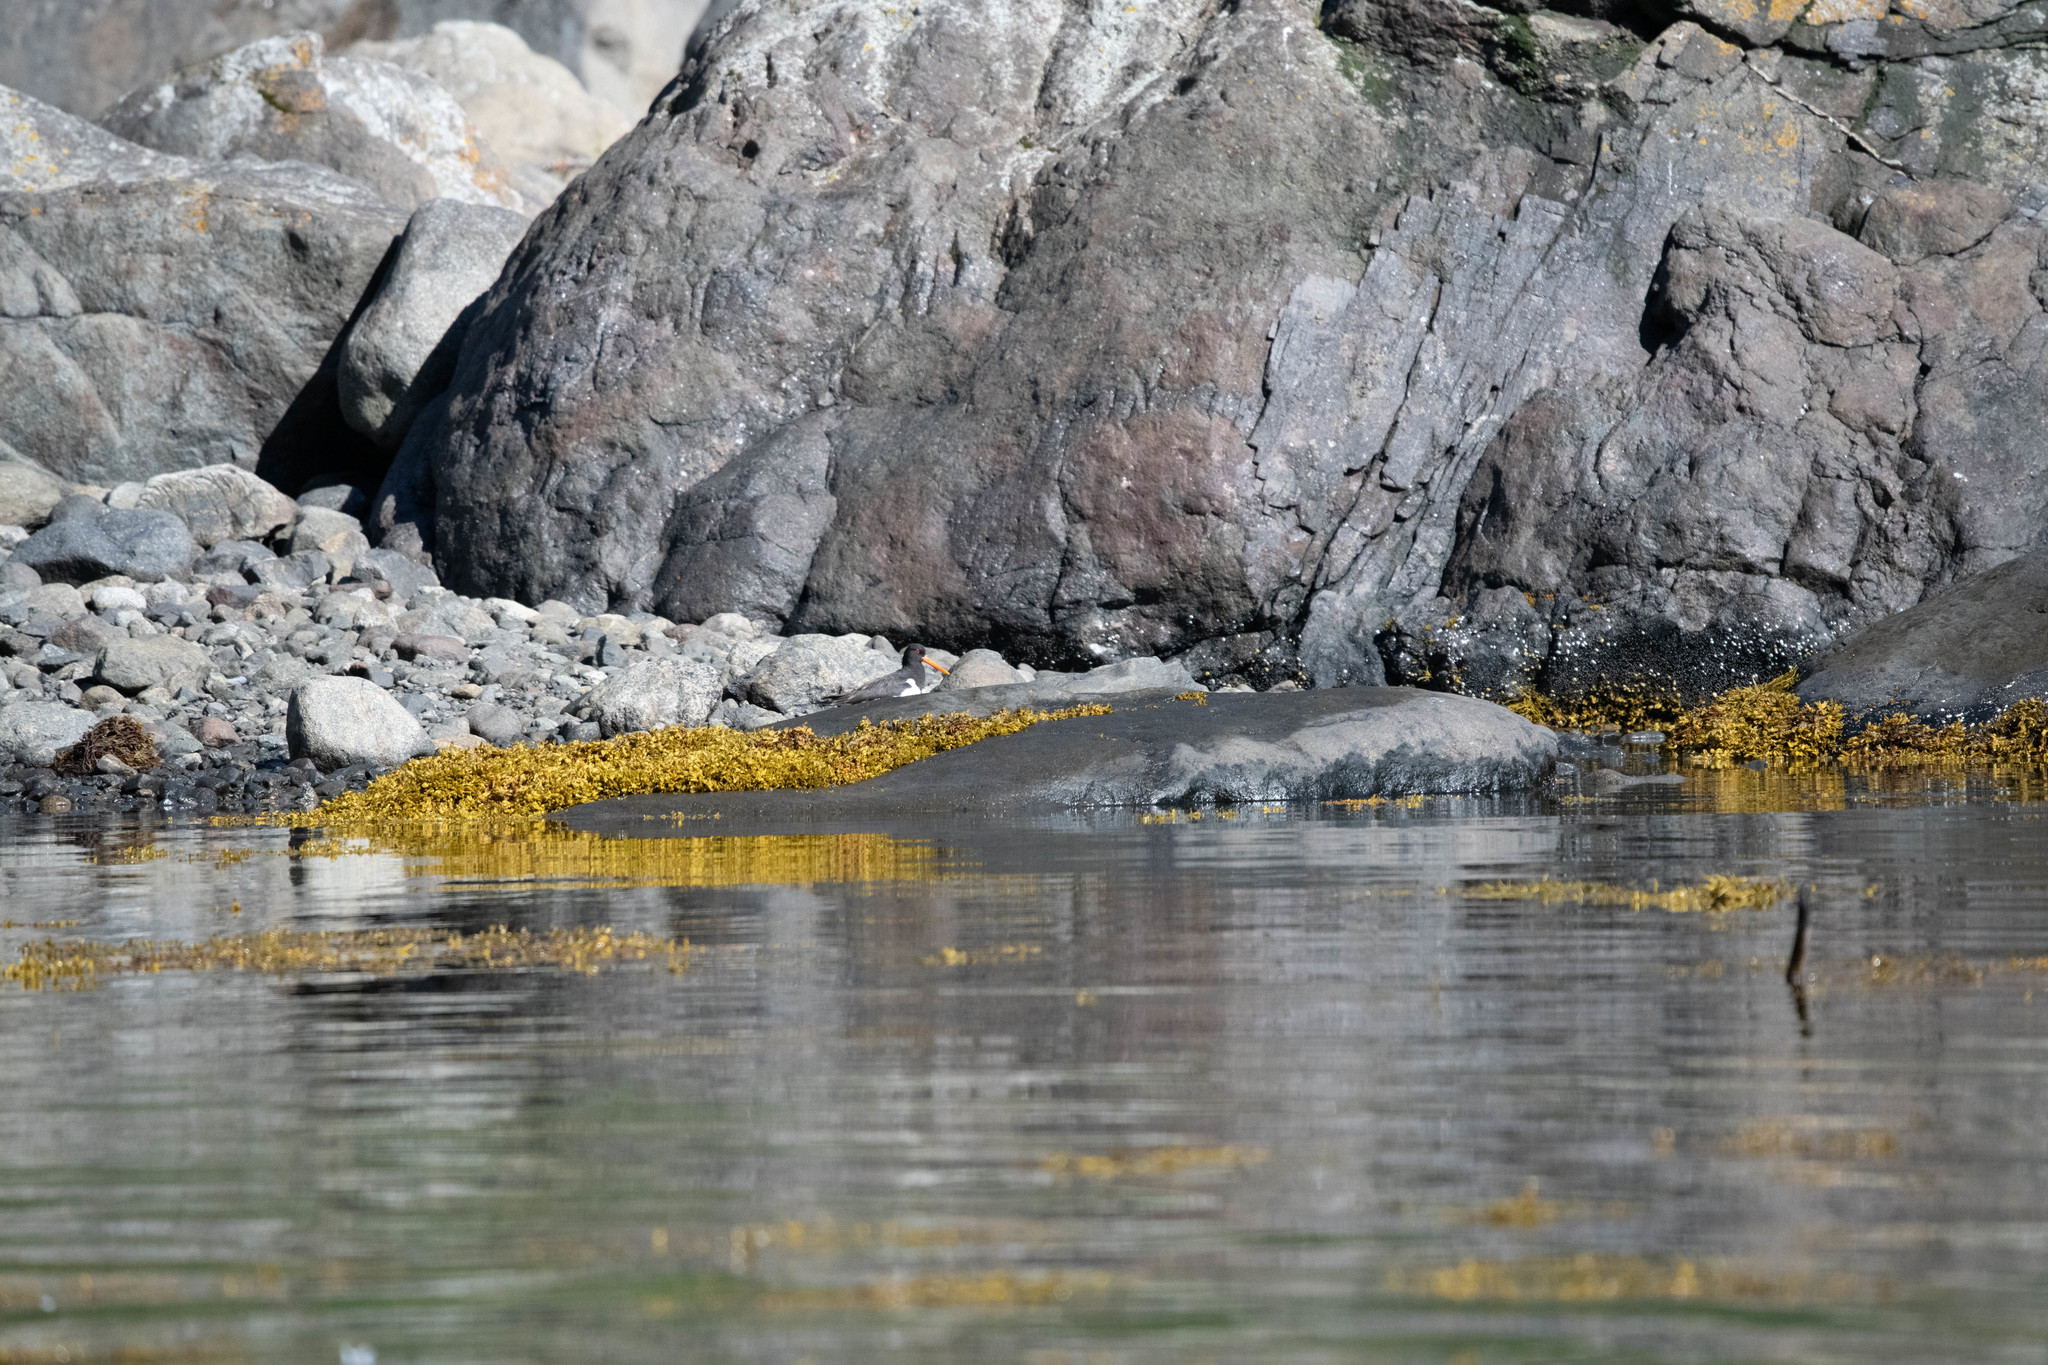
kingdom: Animalia
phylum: Chordata
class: Aves
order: Charadriiformes
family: Haematopodidae
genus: Haematopus
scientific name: Haematopus ostralegus
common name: Eurasian oystercatcher
